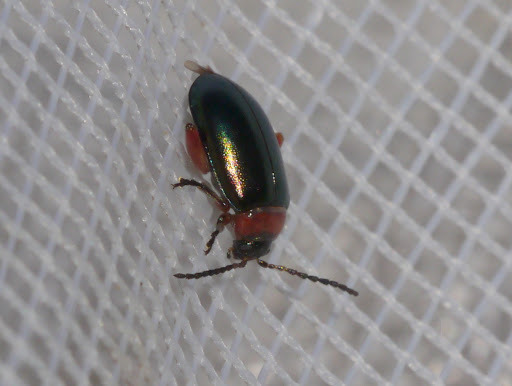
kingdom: Animalia
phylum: Arthropoda
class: Insecta
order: Coleoptera
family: Chrysomelidae
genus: Disonycha
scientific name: Disonycha collata
